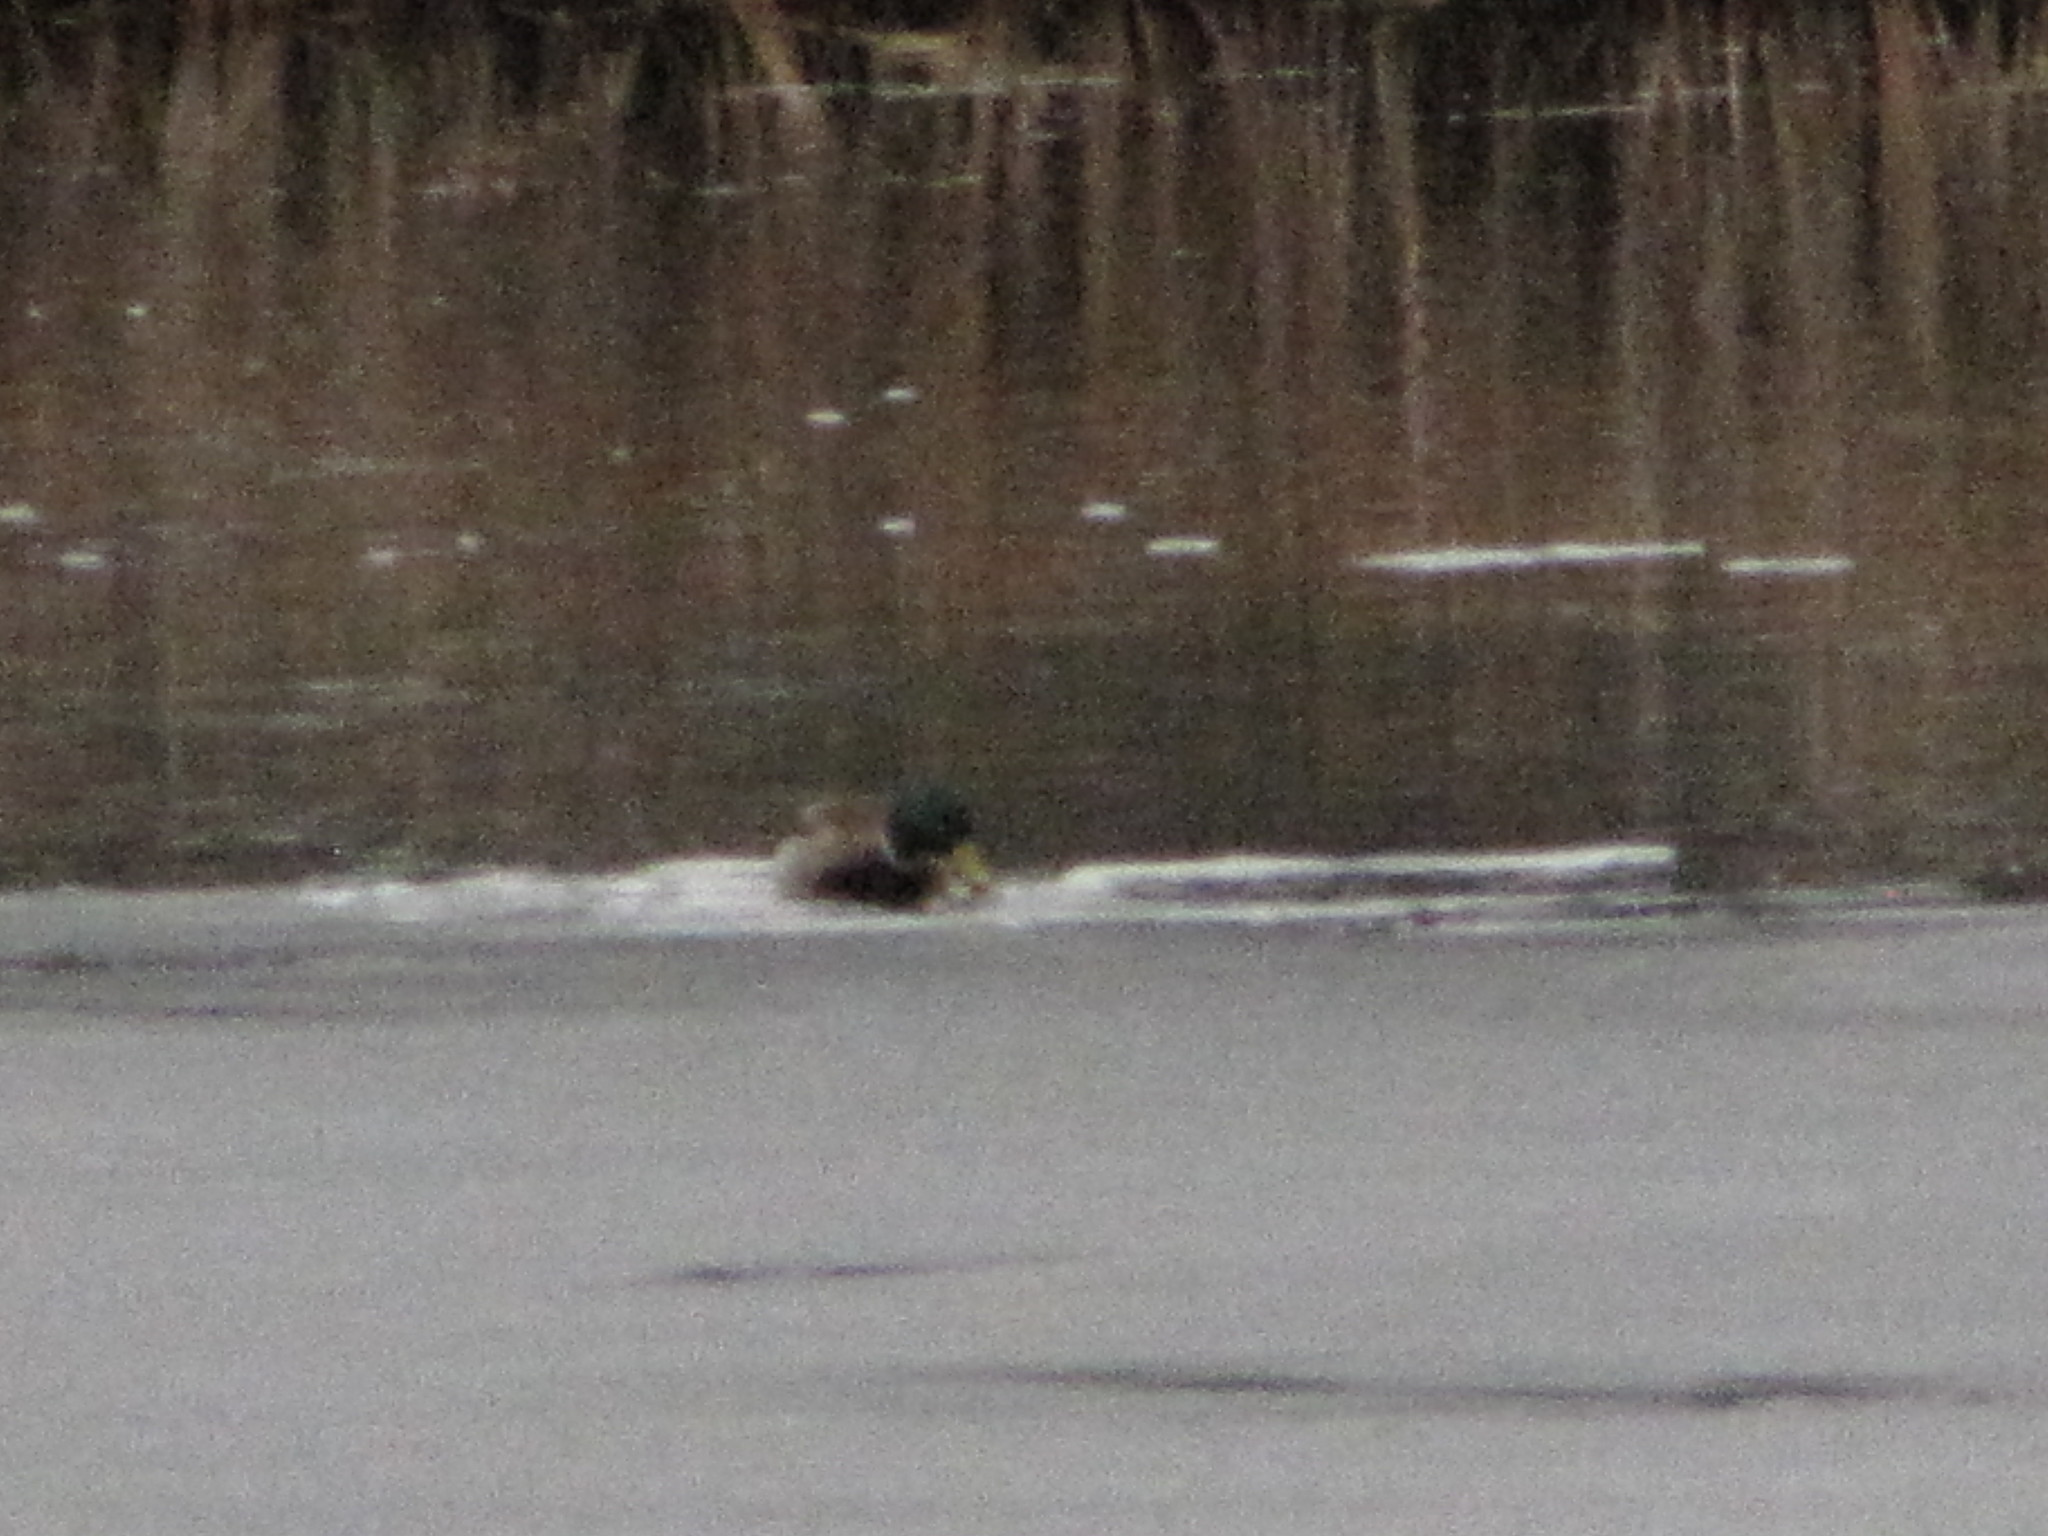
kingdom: Animalia
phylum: Chordata
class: Aves
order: Anseriformes
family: Anatidae
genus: Anas
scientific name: Anas platyrhynchos
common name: Mallard
